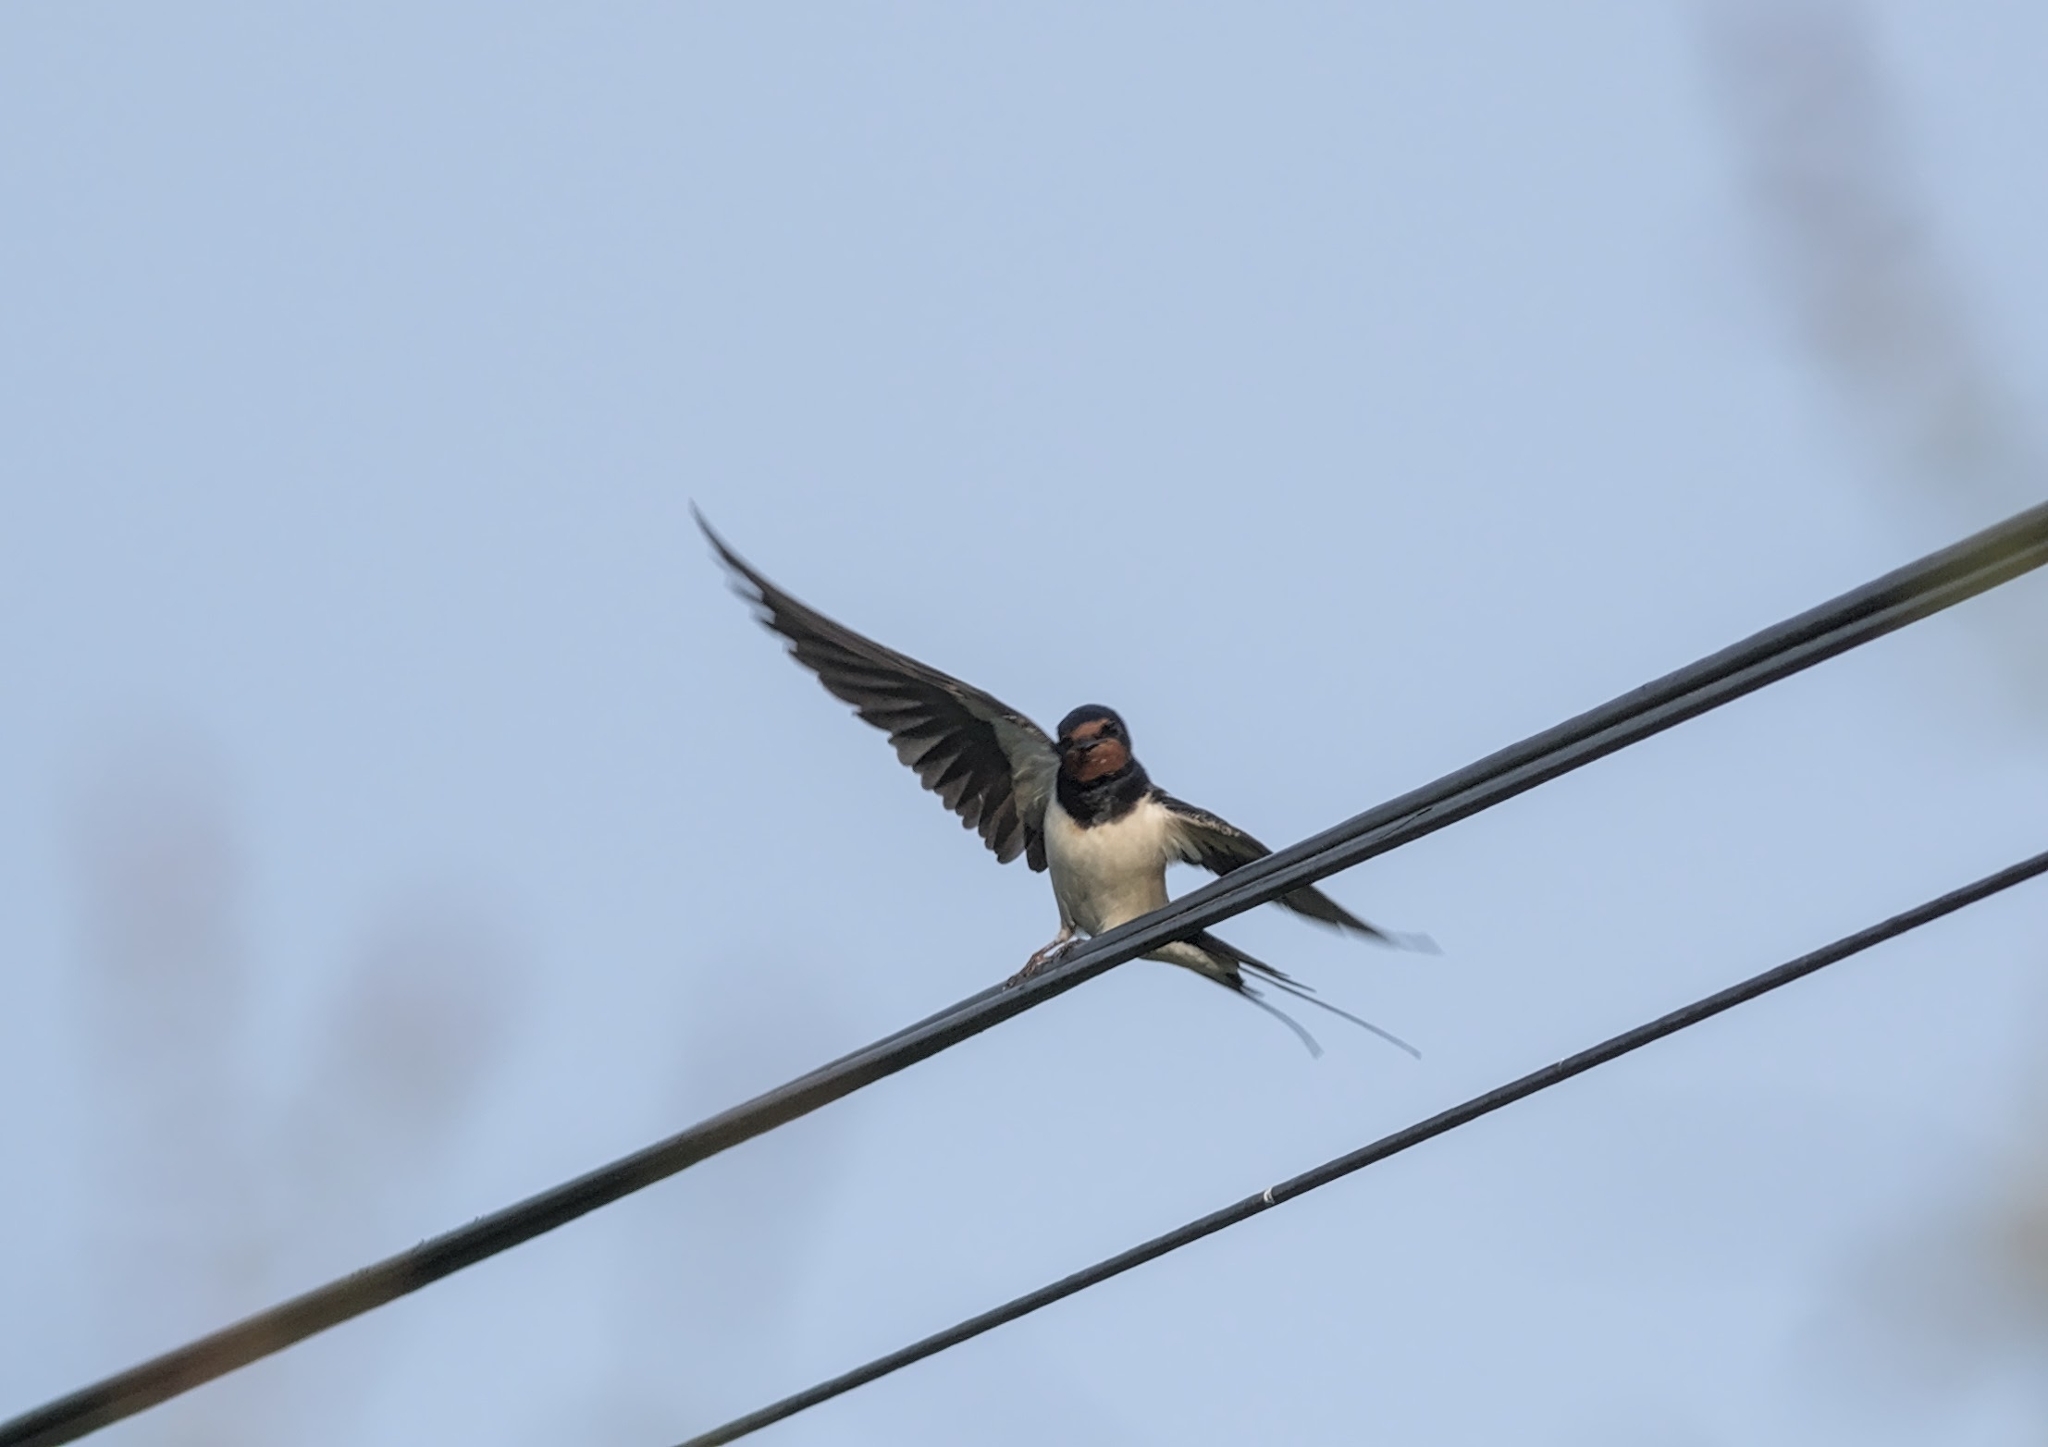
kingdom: Animalia
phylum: Chordata
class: Aves
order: Passeriformes
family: Hirundinidae
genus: Hirundo
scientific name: Hirundo rustica
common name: Barn swallow
